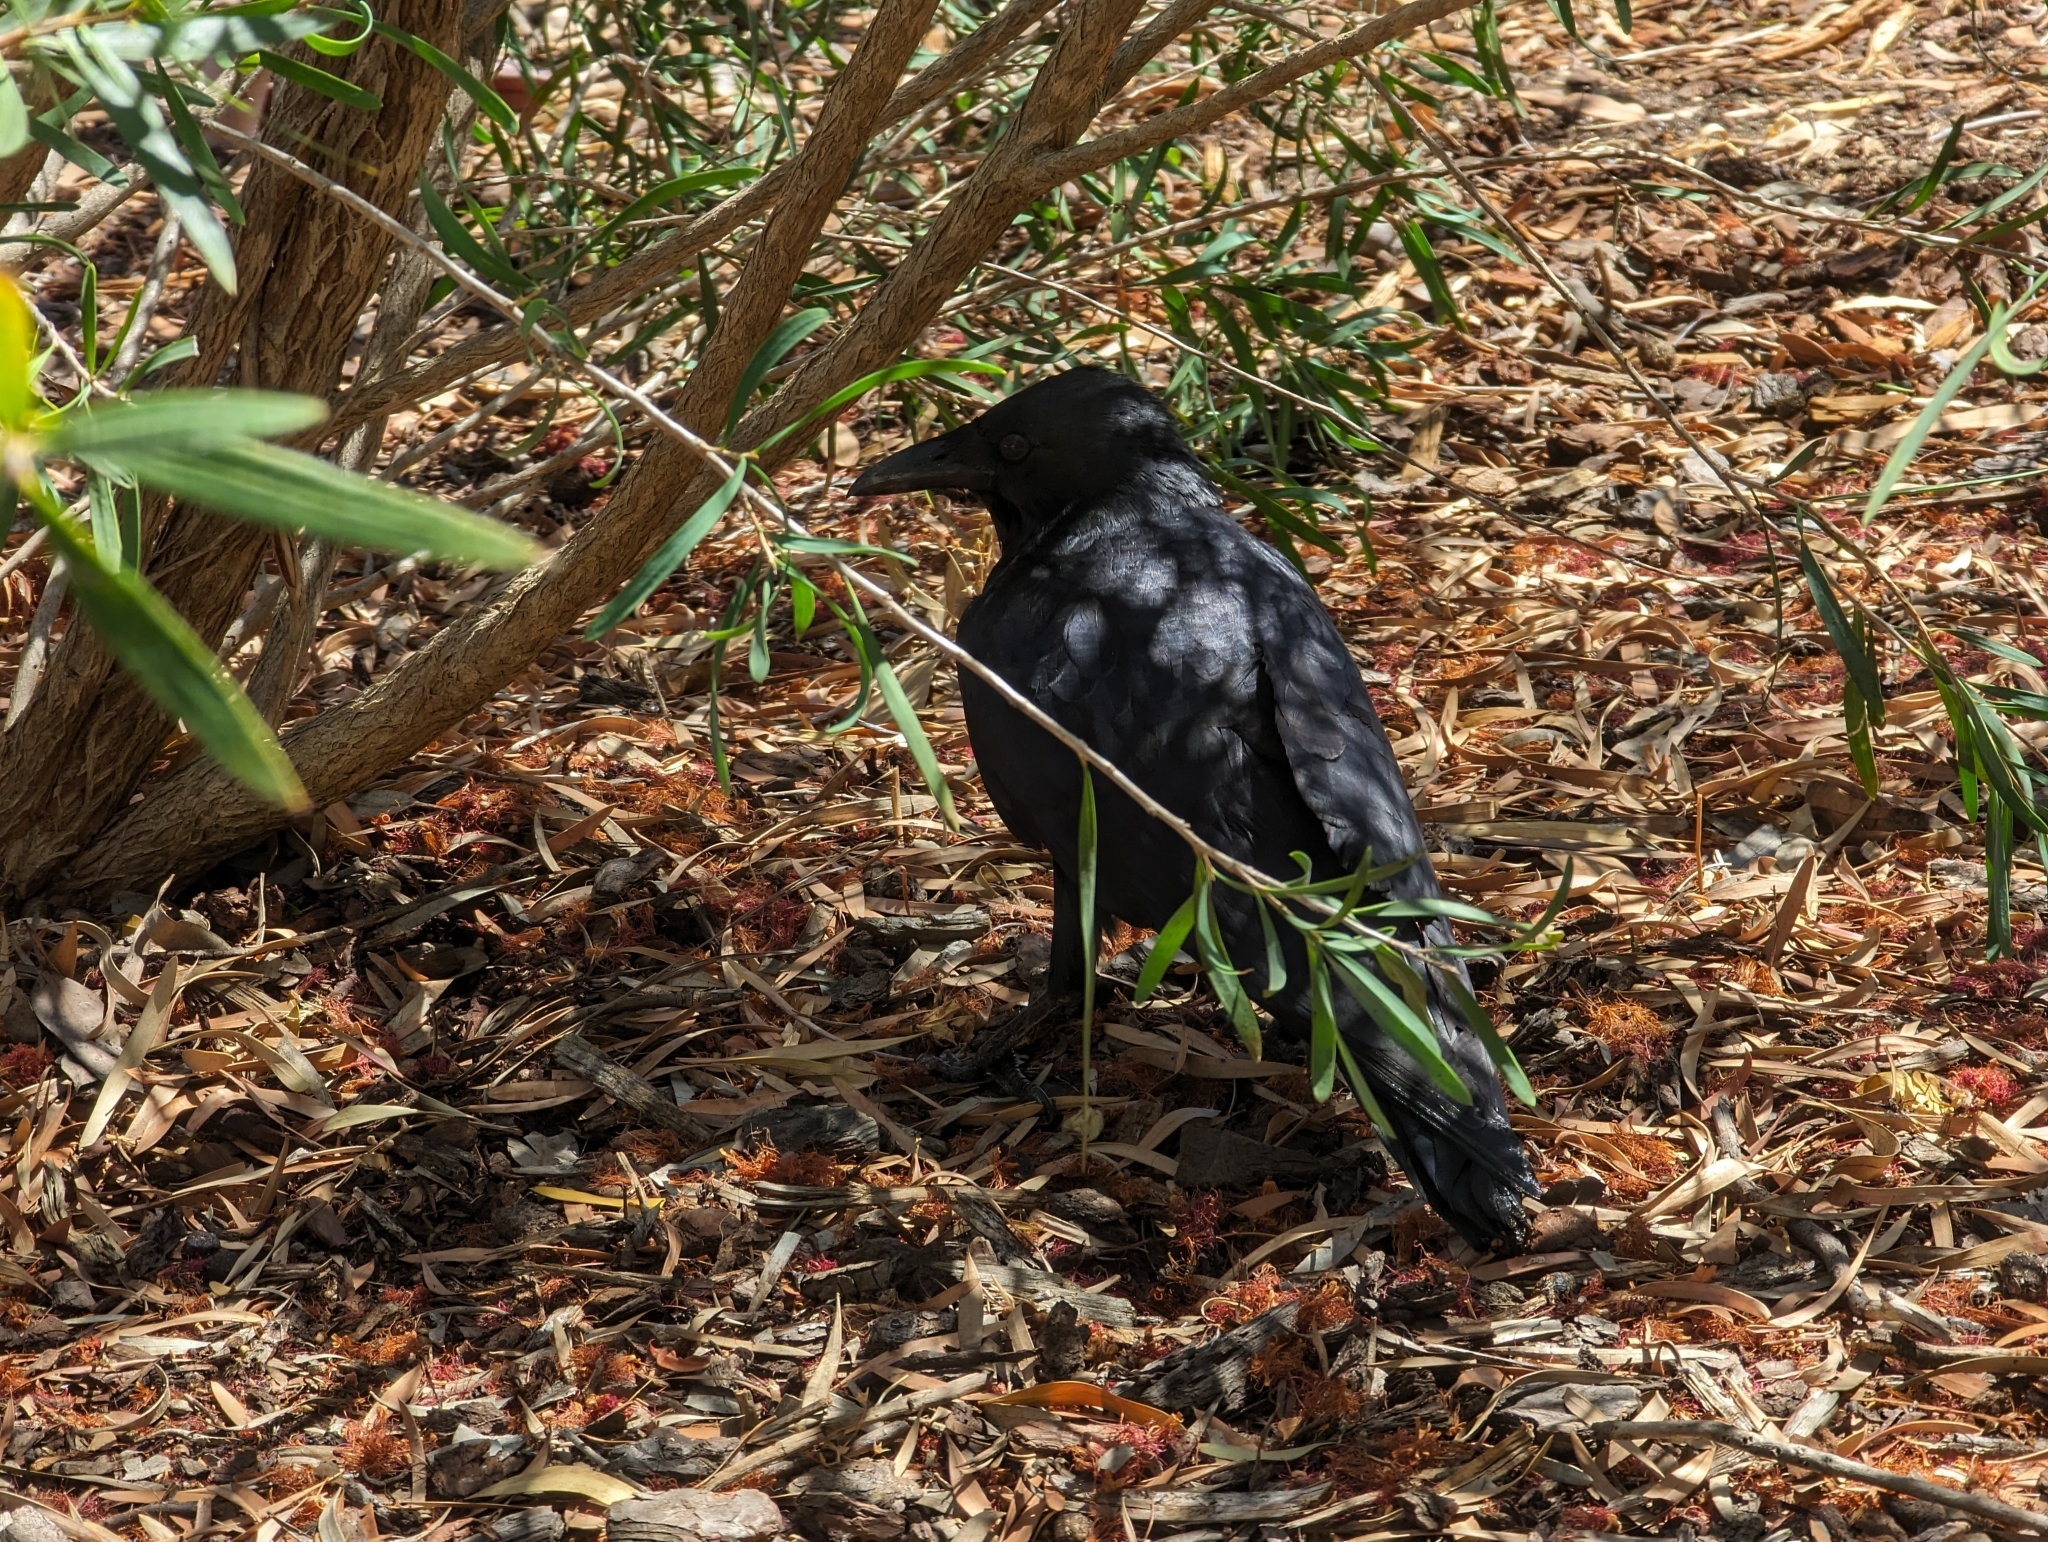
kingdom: Animalia
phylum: Chordata
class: Aves
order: Passeriformes
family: Corvidae
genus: Corvus
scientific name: Corvus coronoides
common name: Australian raven
